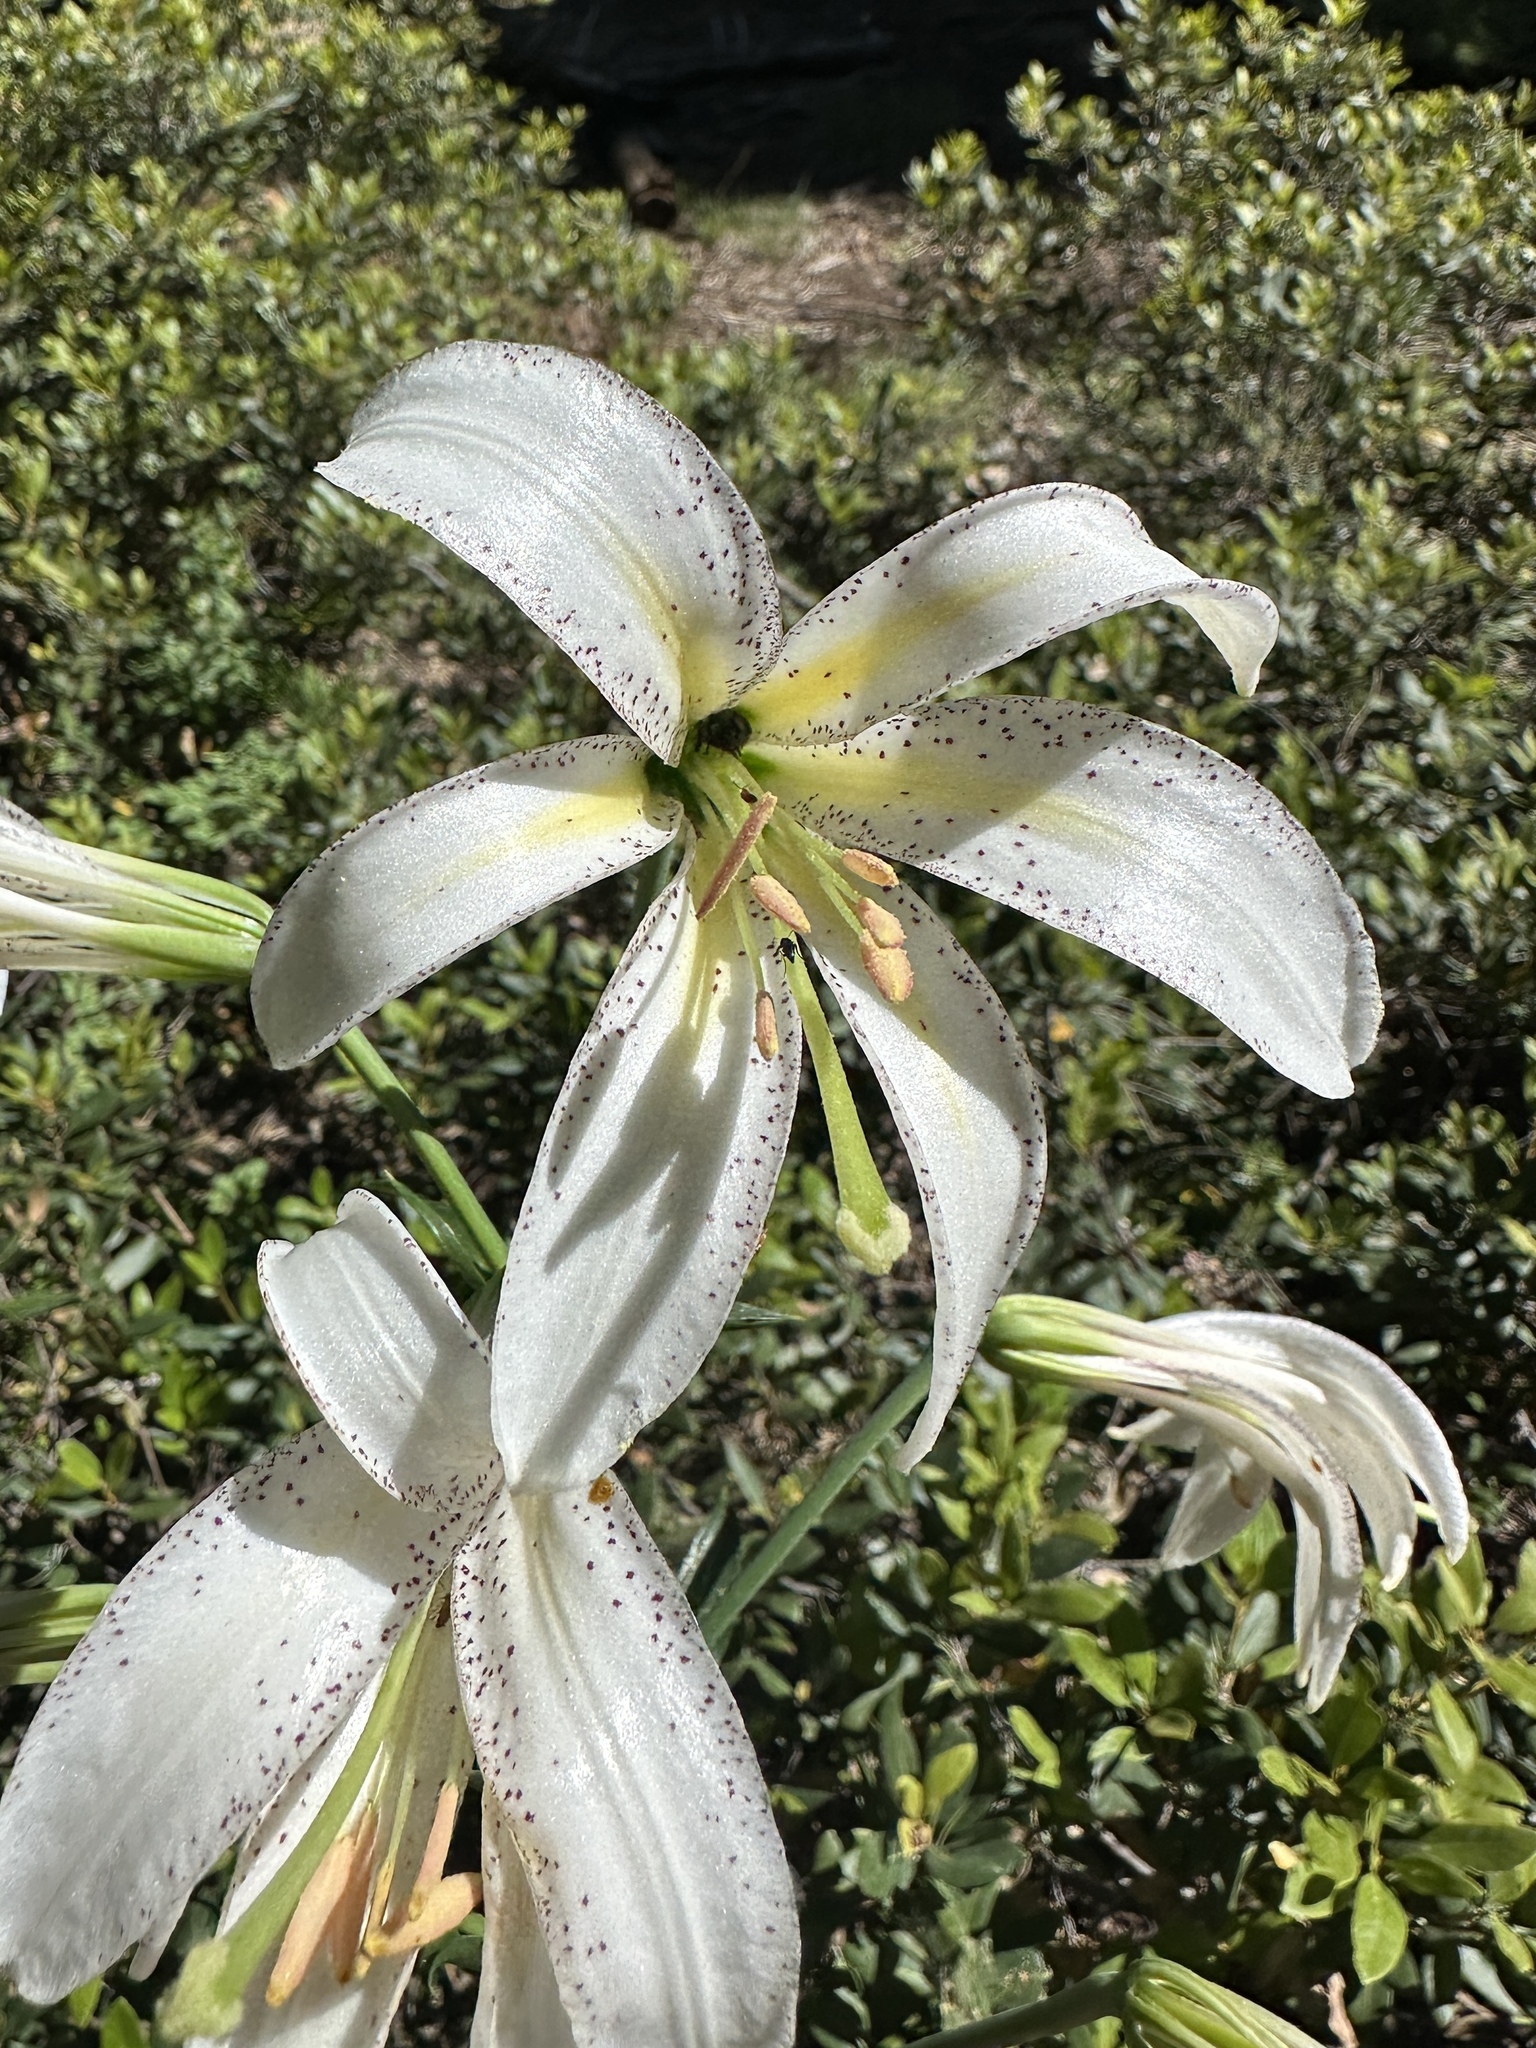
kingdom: Plantae
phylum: Tracheophyta
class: Liliopsida
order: Liliales
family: Liliaceae
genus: Lilium
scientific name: Lilium washingtonianum
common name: Washington lily
